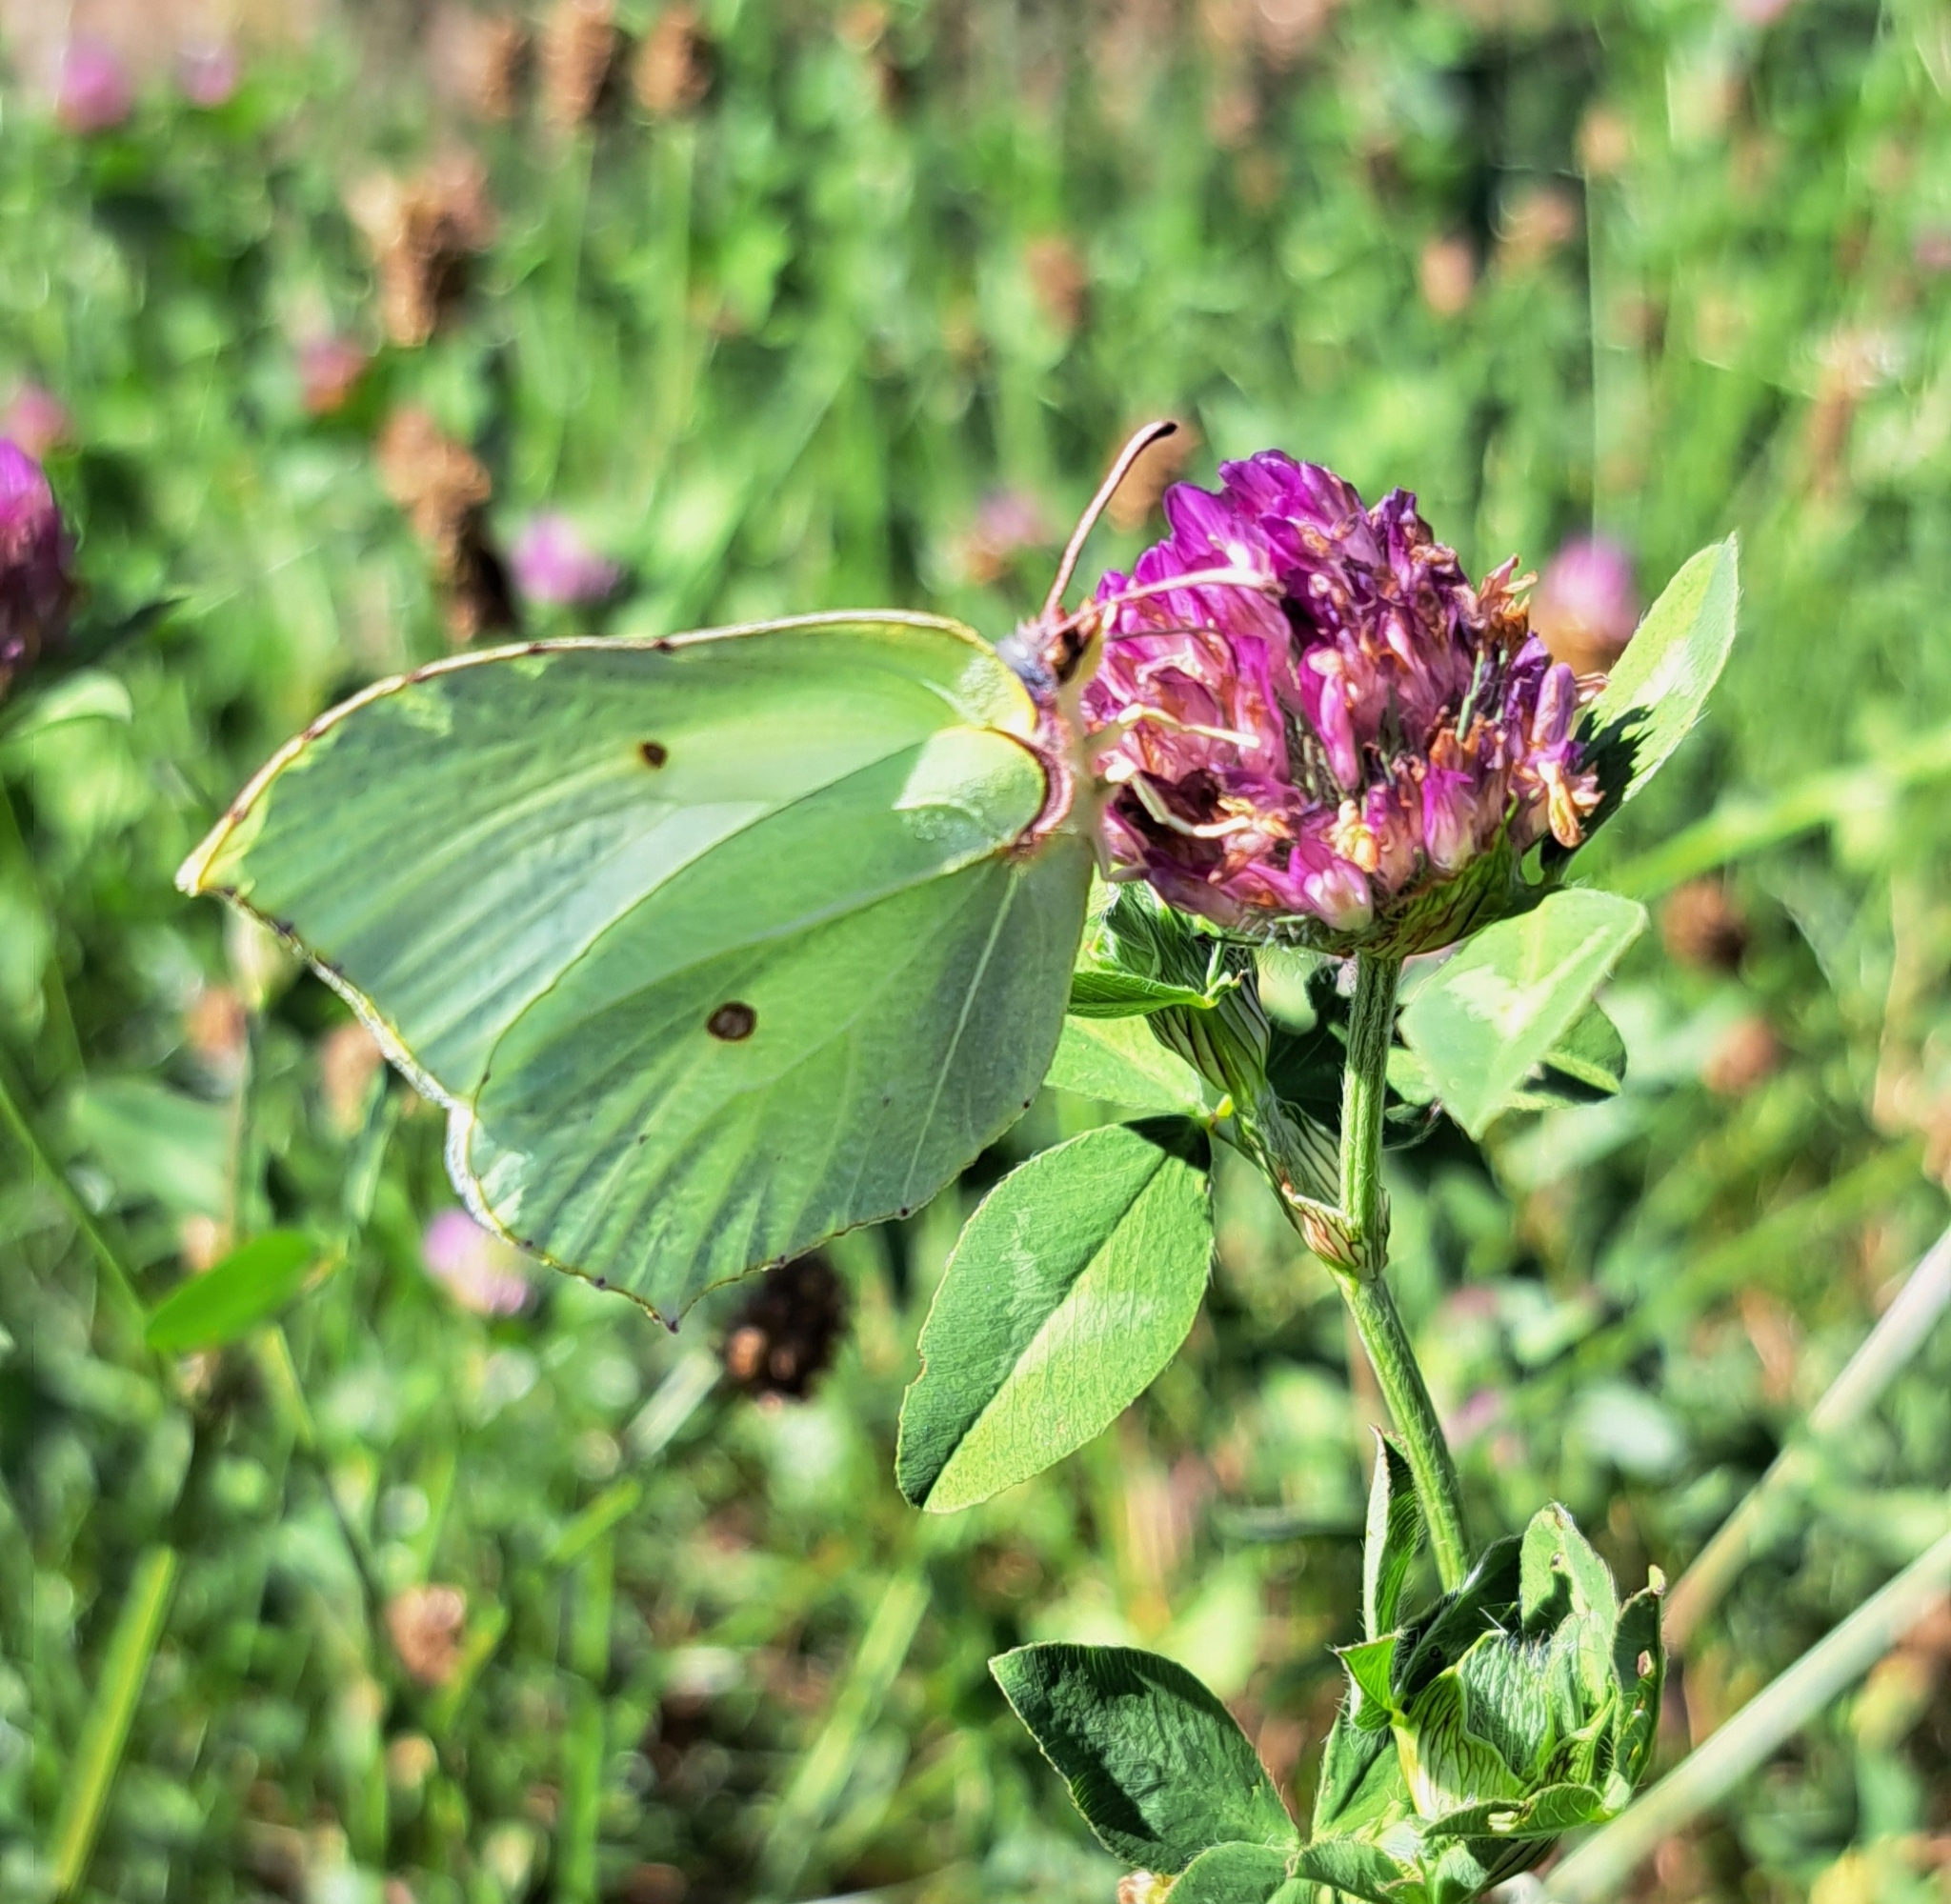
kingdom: Animalia
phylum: Arthropoda
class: Insecta
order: Lepidoptera
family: Pieridae
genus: Gonepteryx
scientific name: Gonepteryx rhamni
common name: Brimstone
